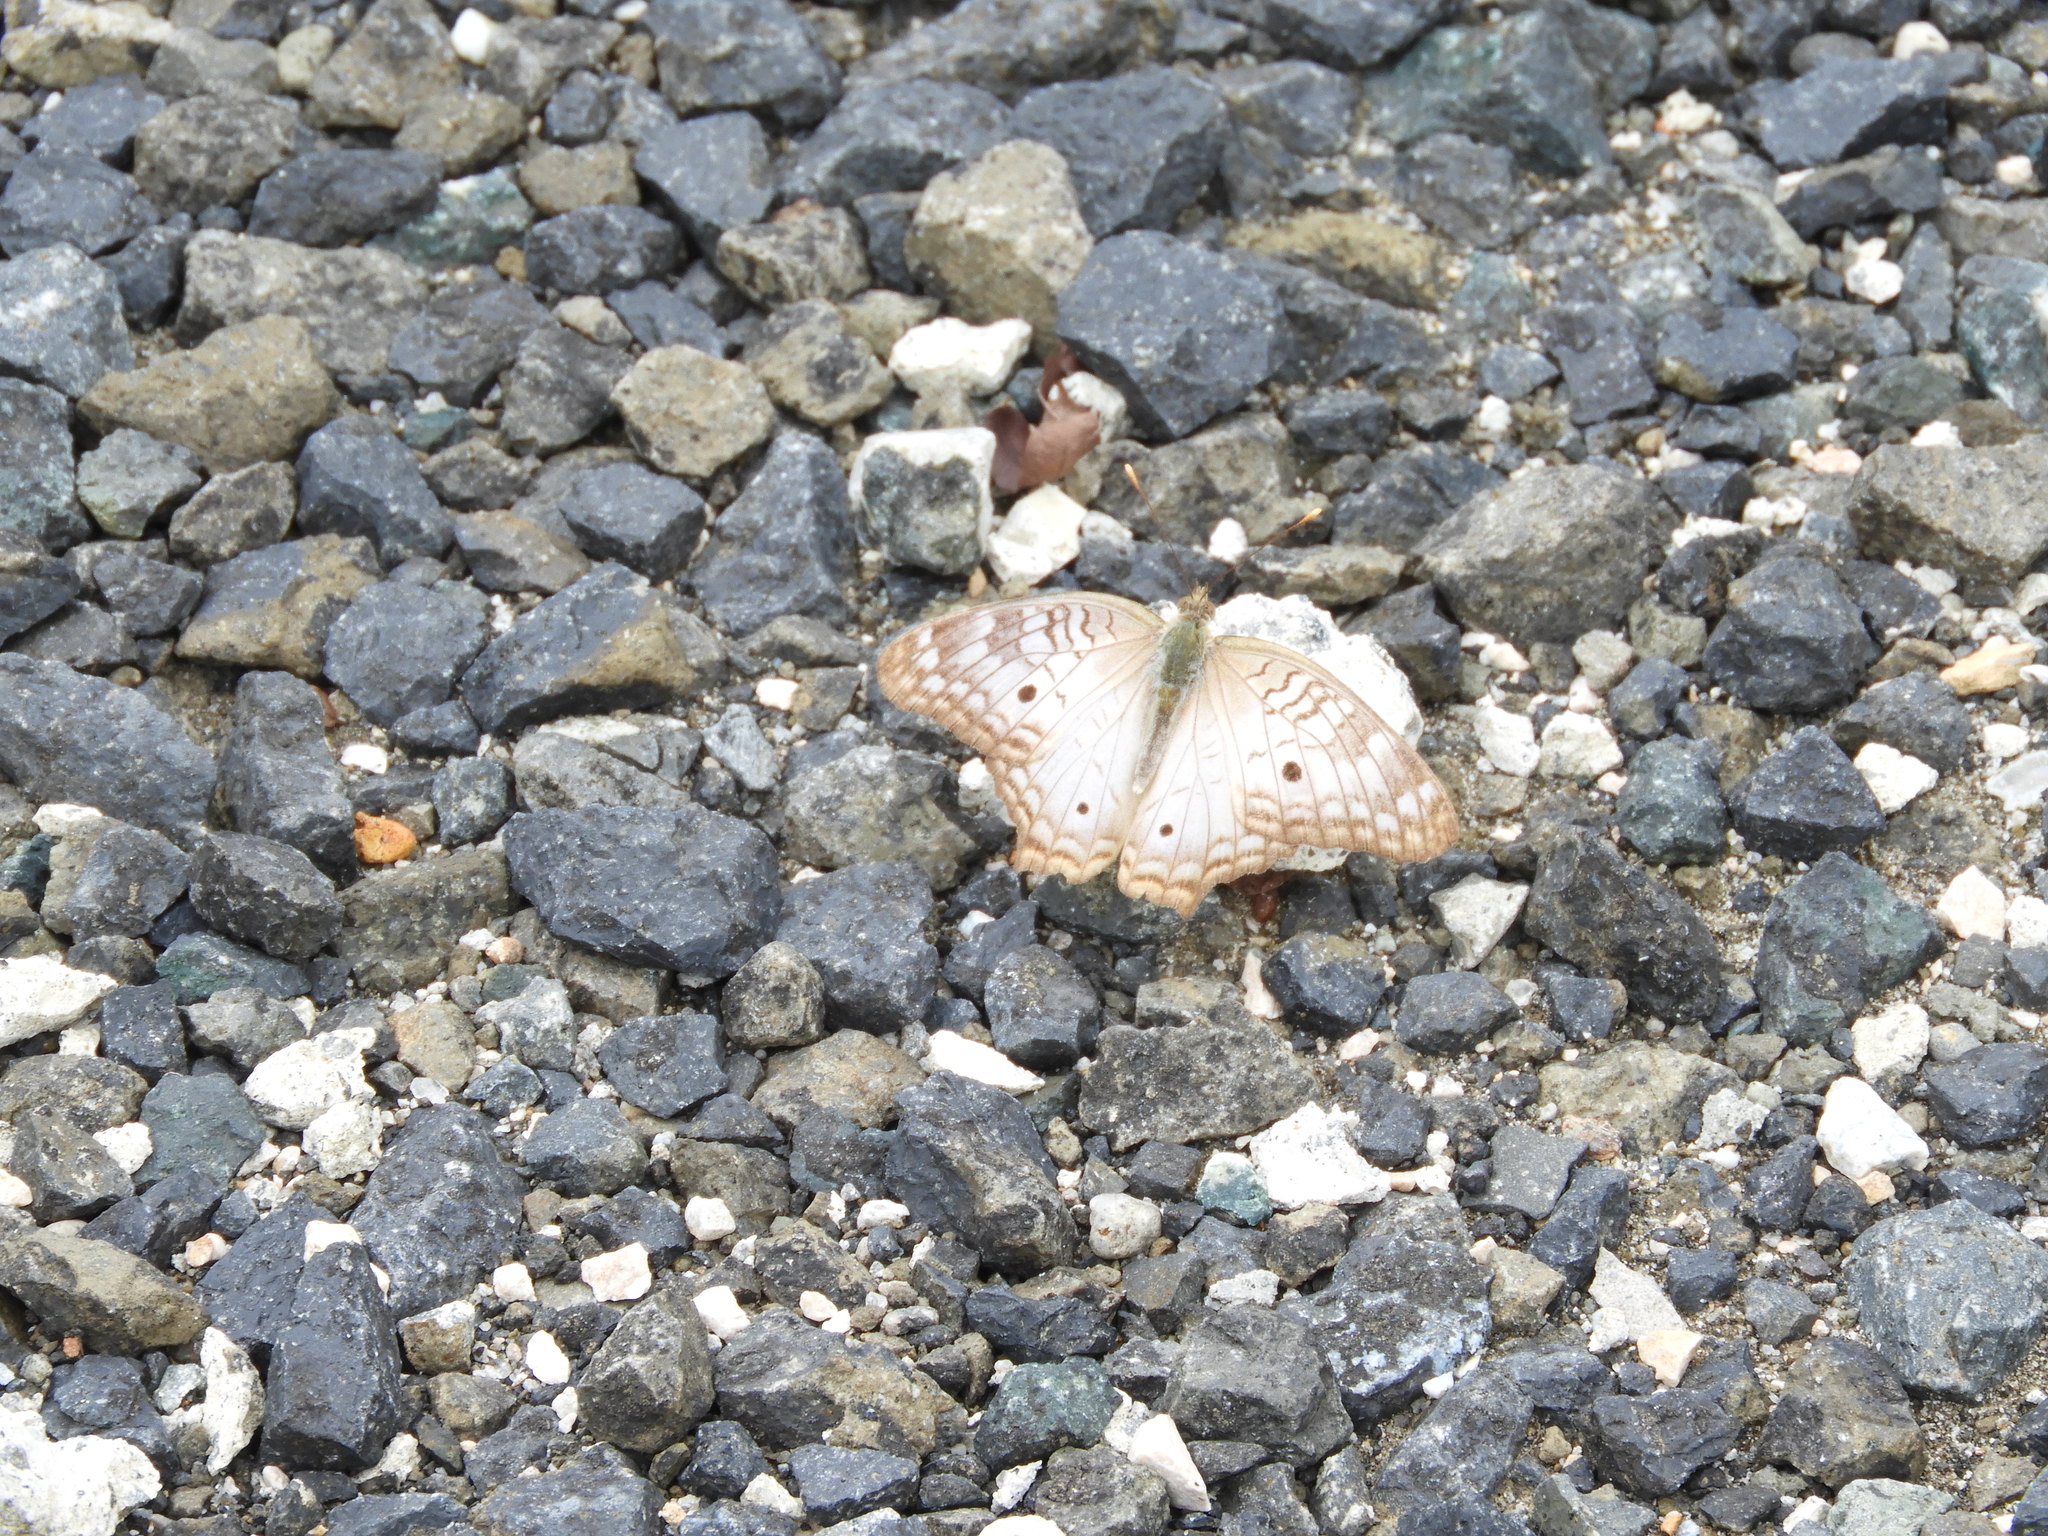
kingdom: Animalia
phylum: Arthropoda
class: Insecta
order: Lepidoptera
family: Nymphalidae
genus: Anartia
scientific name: Anartia jatrophae
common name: White peacock
